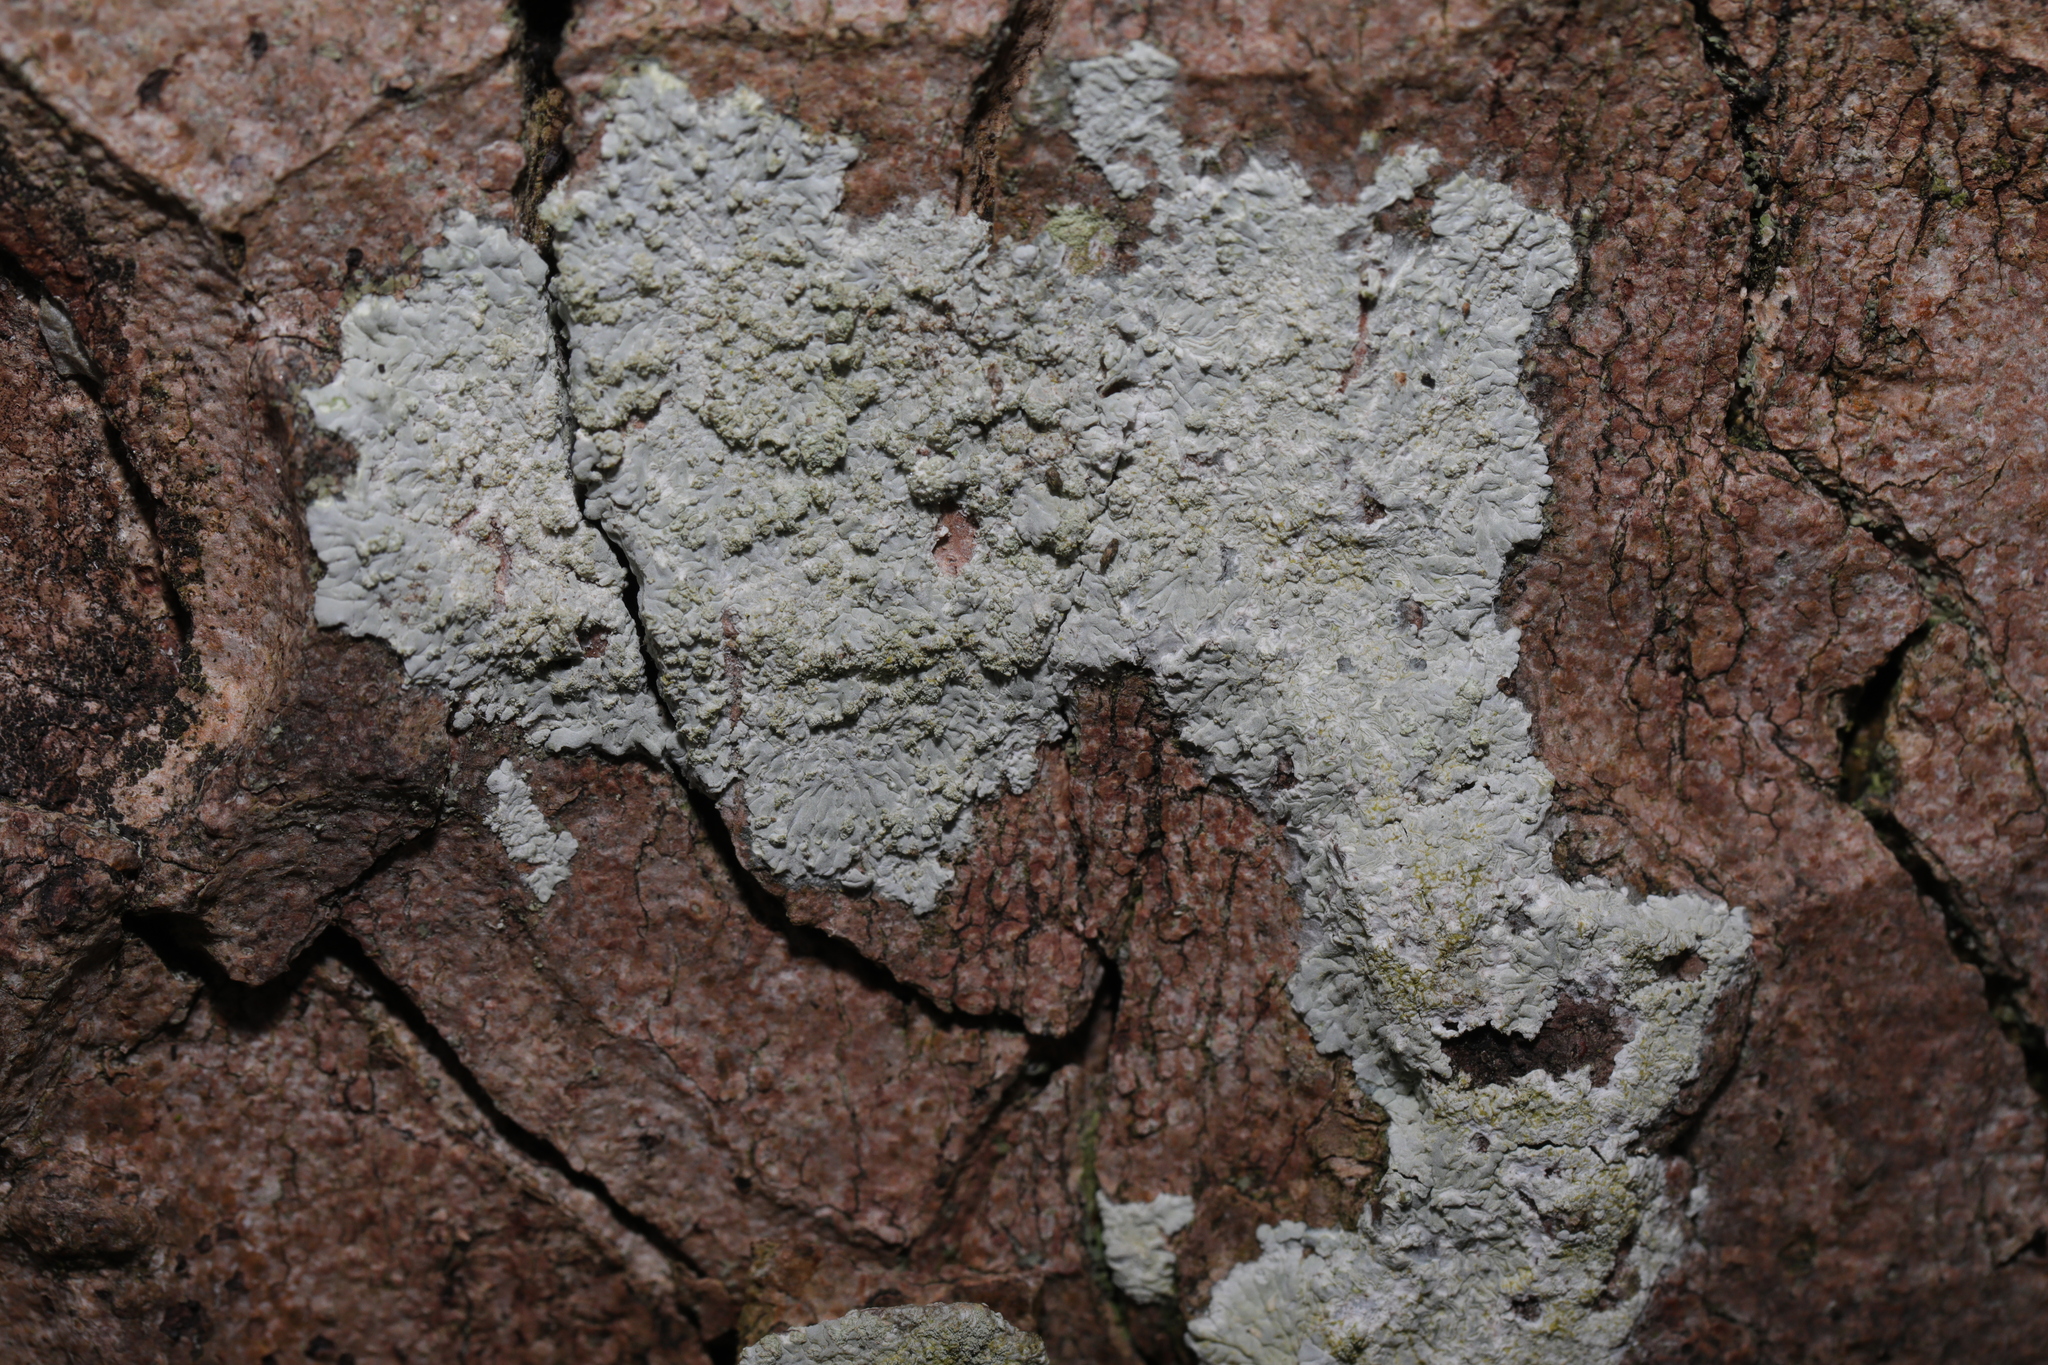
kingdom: Fungi
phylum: Ascomycota
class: Lecanoromycetes
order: Caliciales
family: Caliciaceae
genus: Diploicia
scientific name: Diploicia canescens
